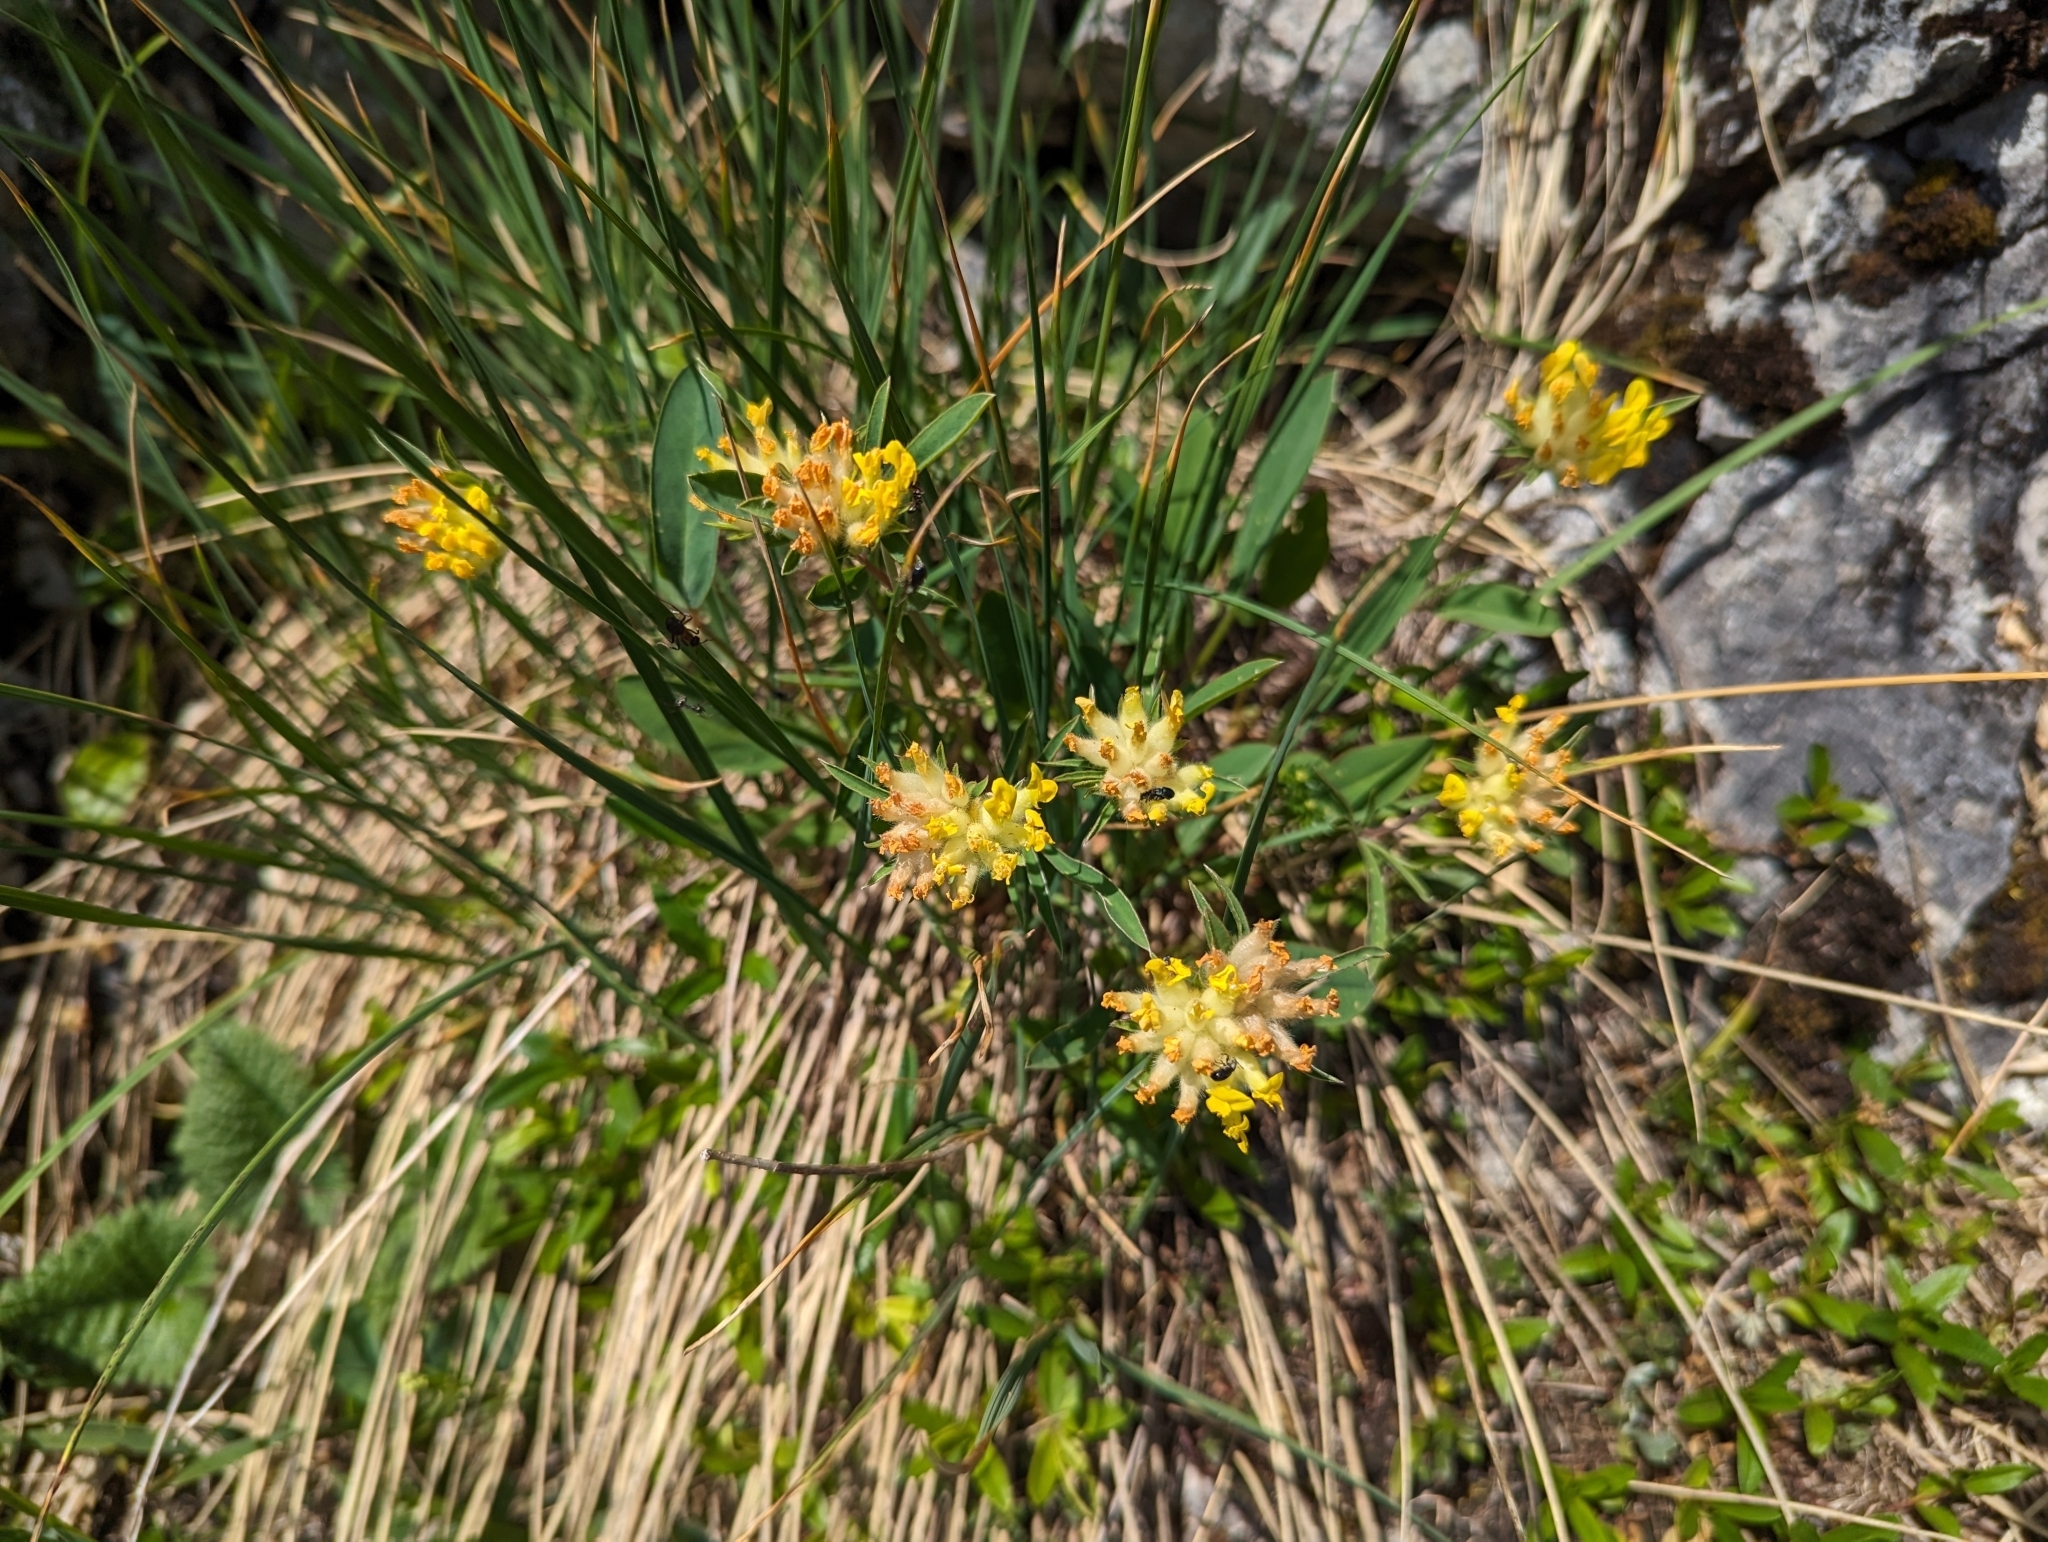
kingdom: Plantae
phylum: Tracheophyta
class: Magnoliopsida
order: Fabales
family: Fabaceae
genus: Anthyllis
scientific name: Anthyllis vulneraria
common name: Kidney vetch
